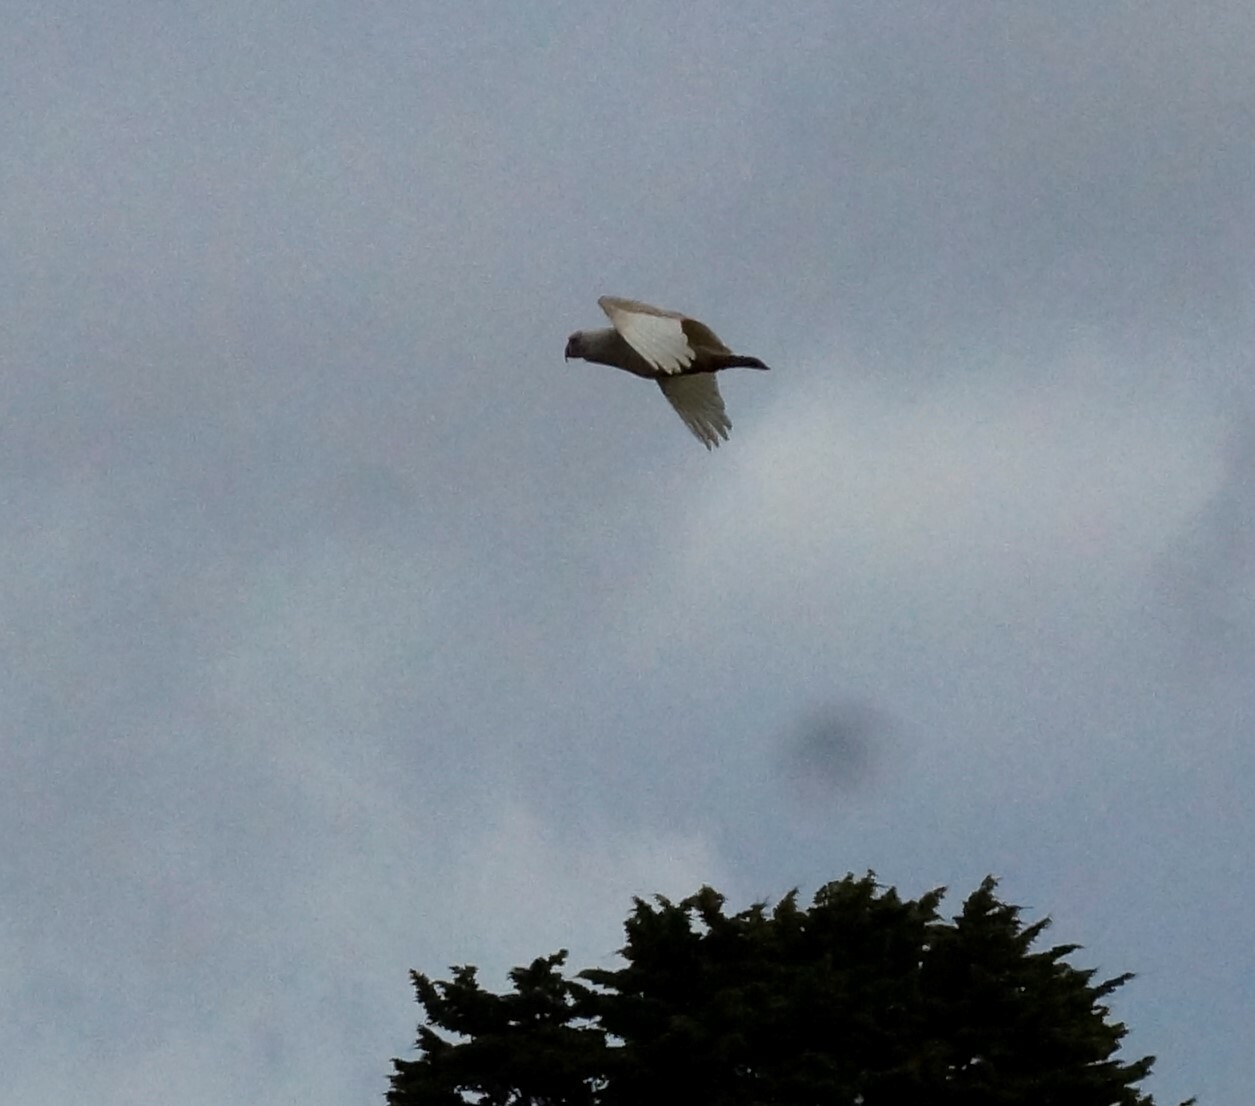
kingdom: Animalia
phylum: Chordata
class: Aves
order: Psittaciformes
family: Psittacidae
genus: Cacatua
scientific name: Cacatua tenuirostris
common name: Long-billed corella
